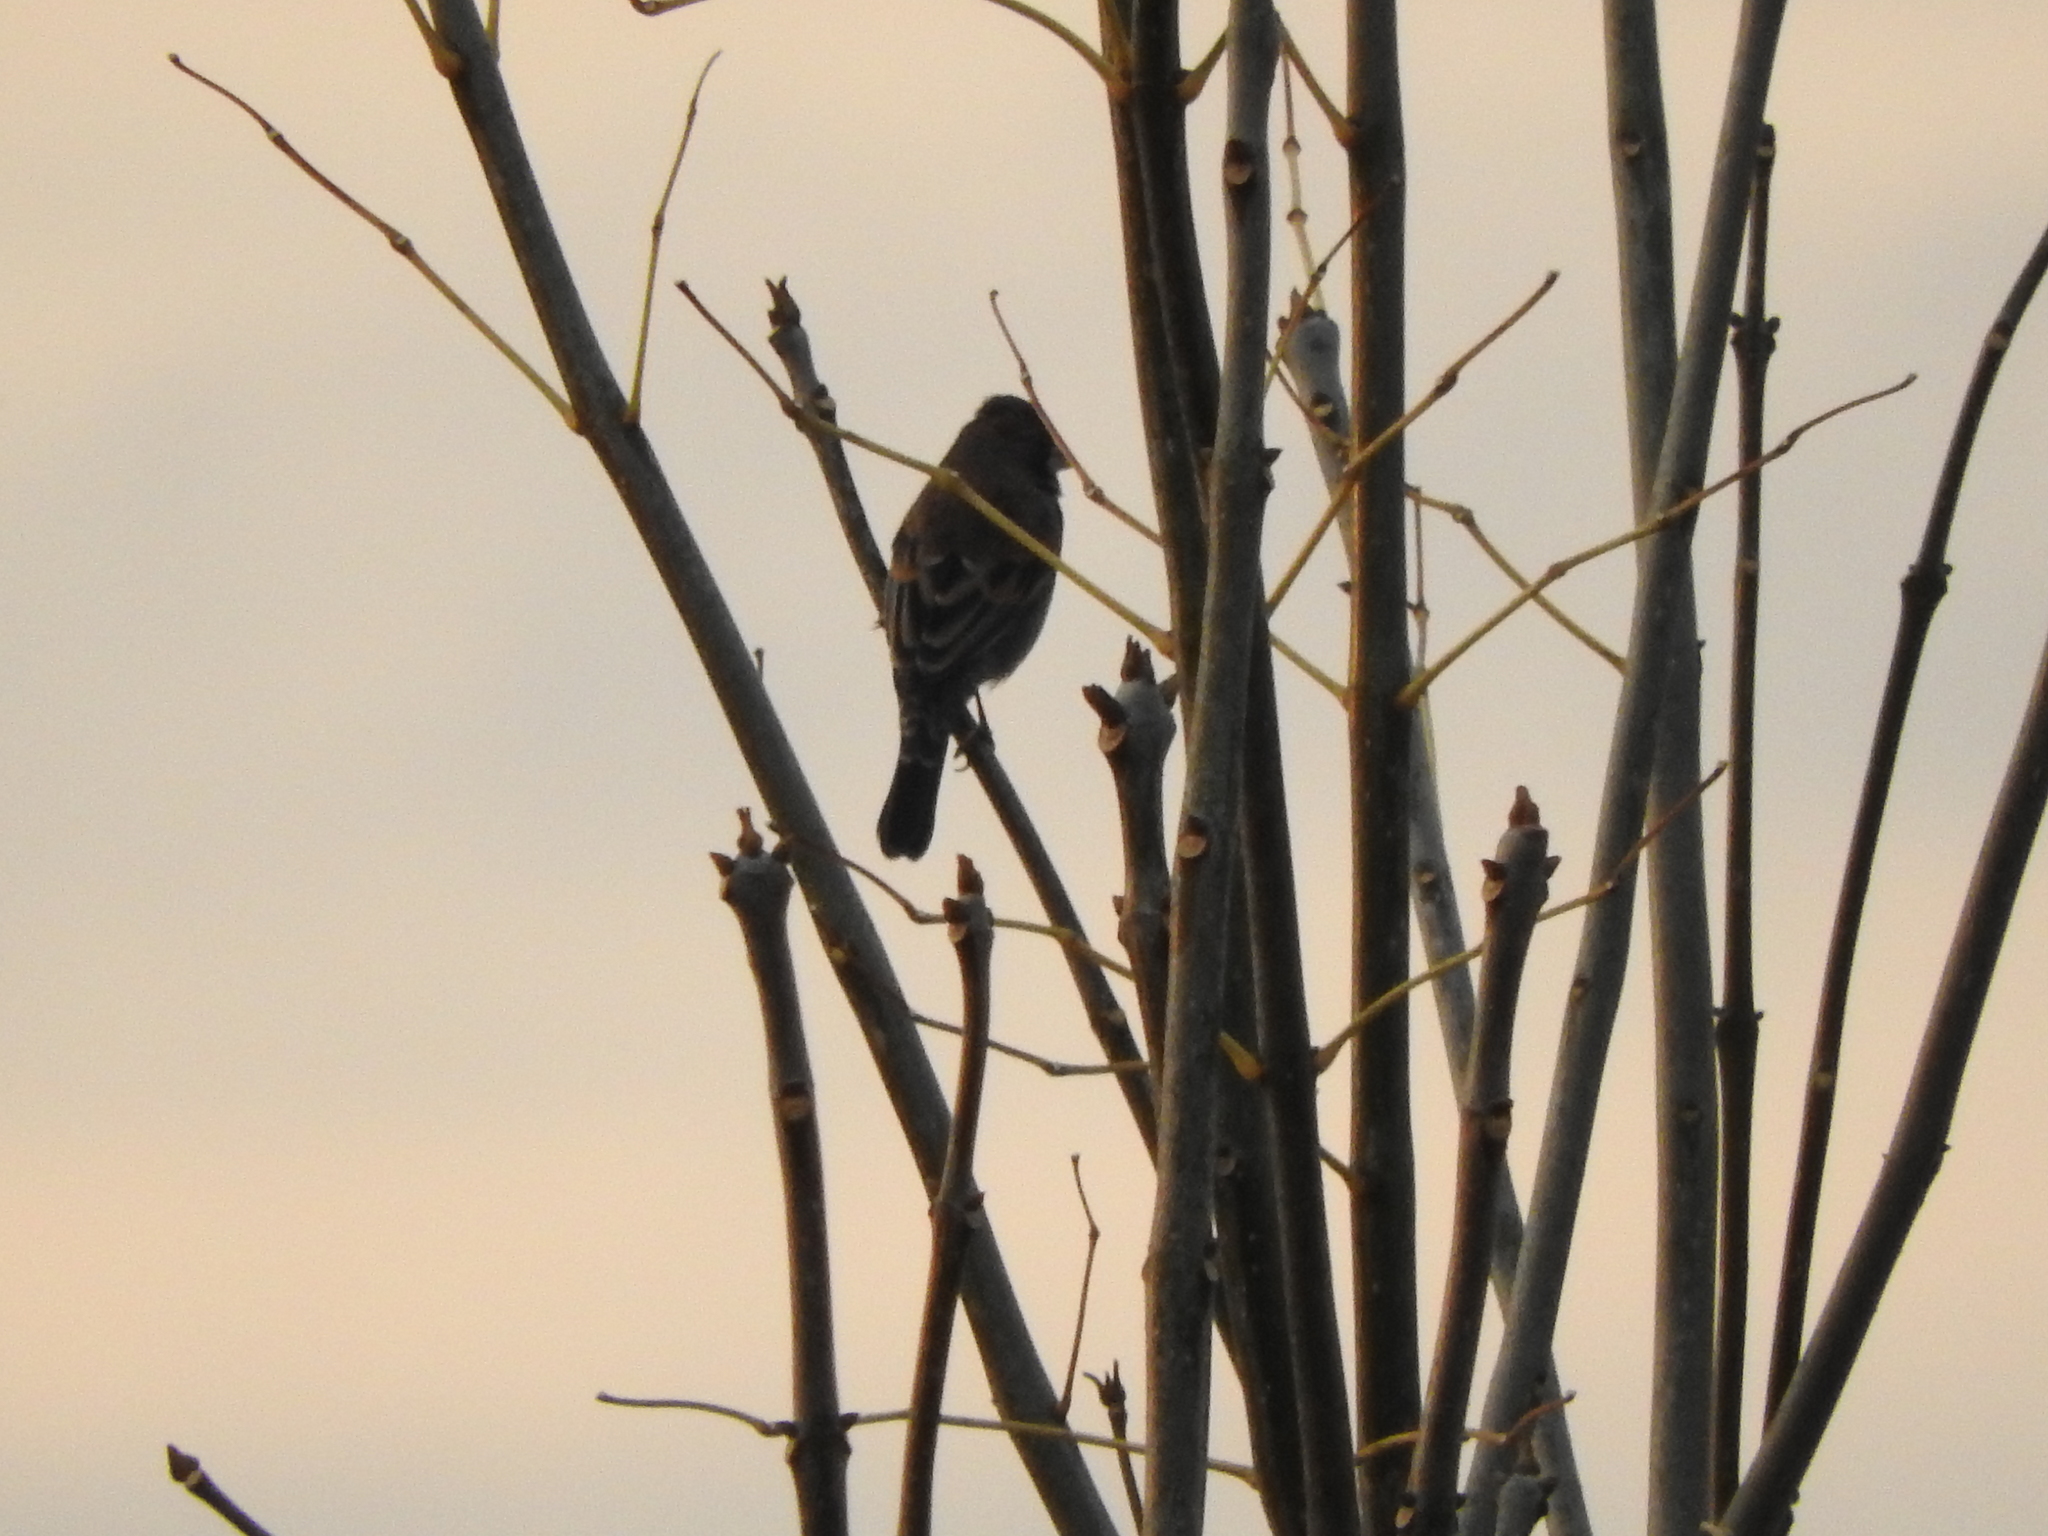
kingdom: Animalia
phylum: Chordata
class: Aves
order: Passeriformes
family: Cardinalidae
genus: Passerina
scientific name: Passerina caerulea
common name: Blue grosbeak
